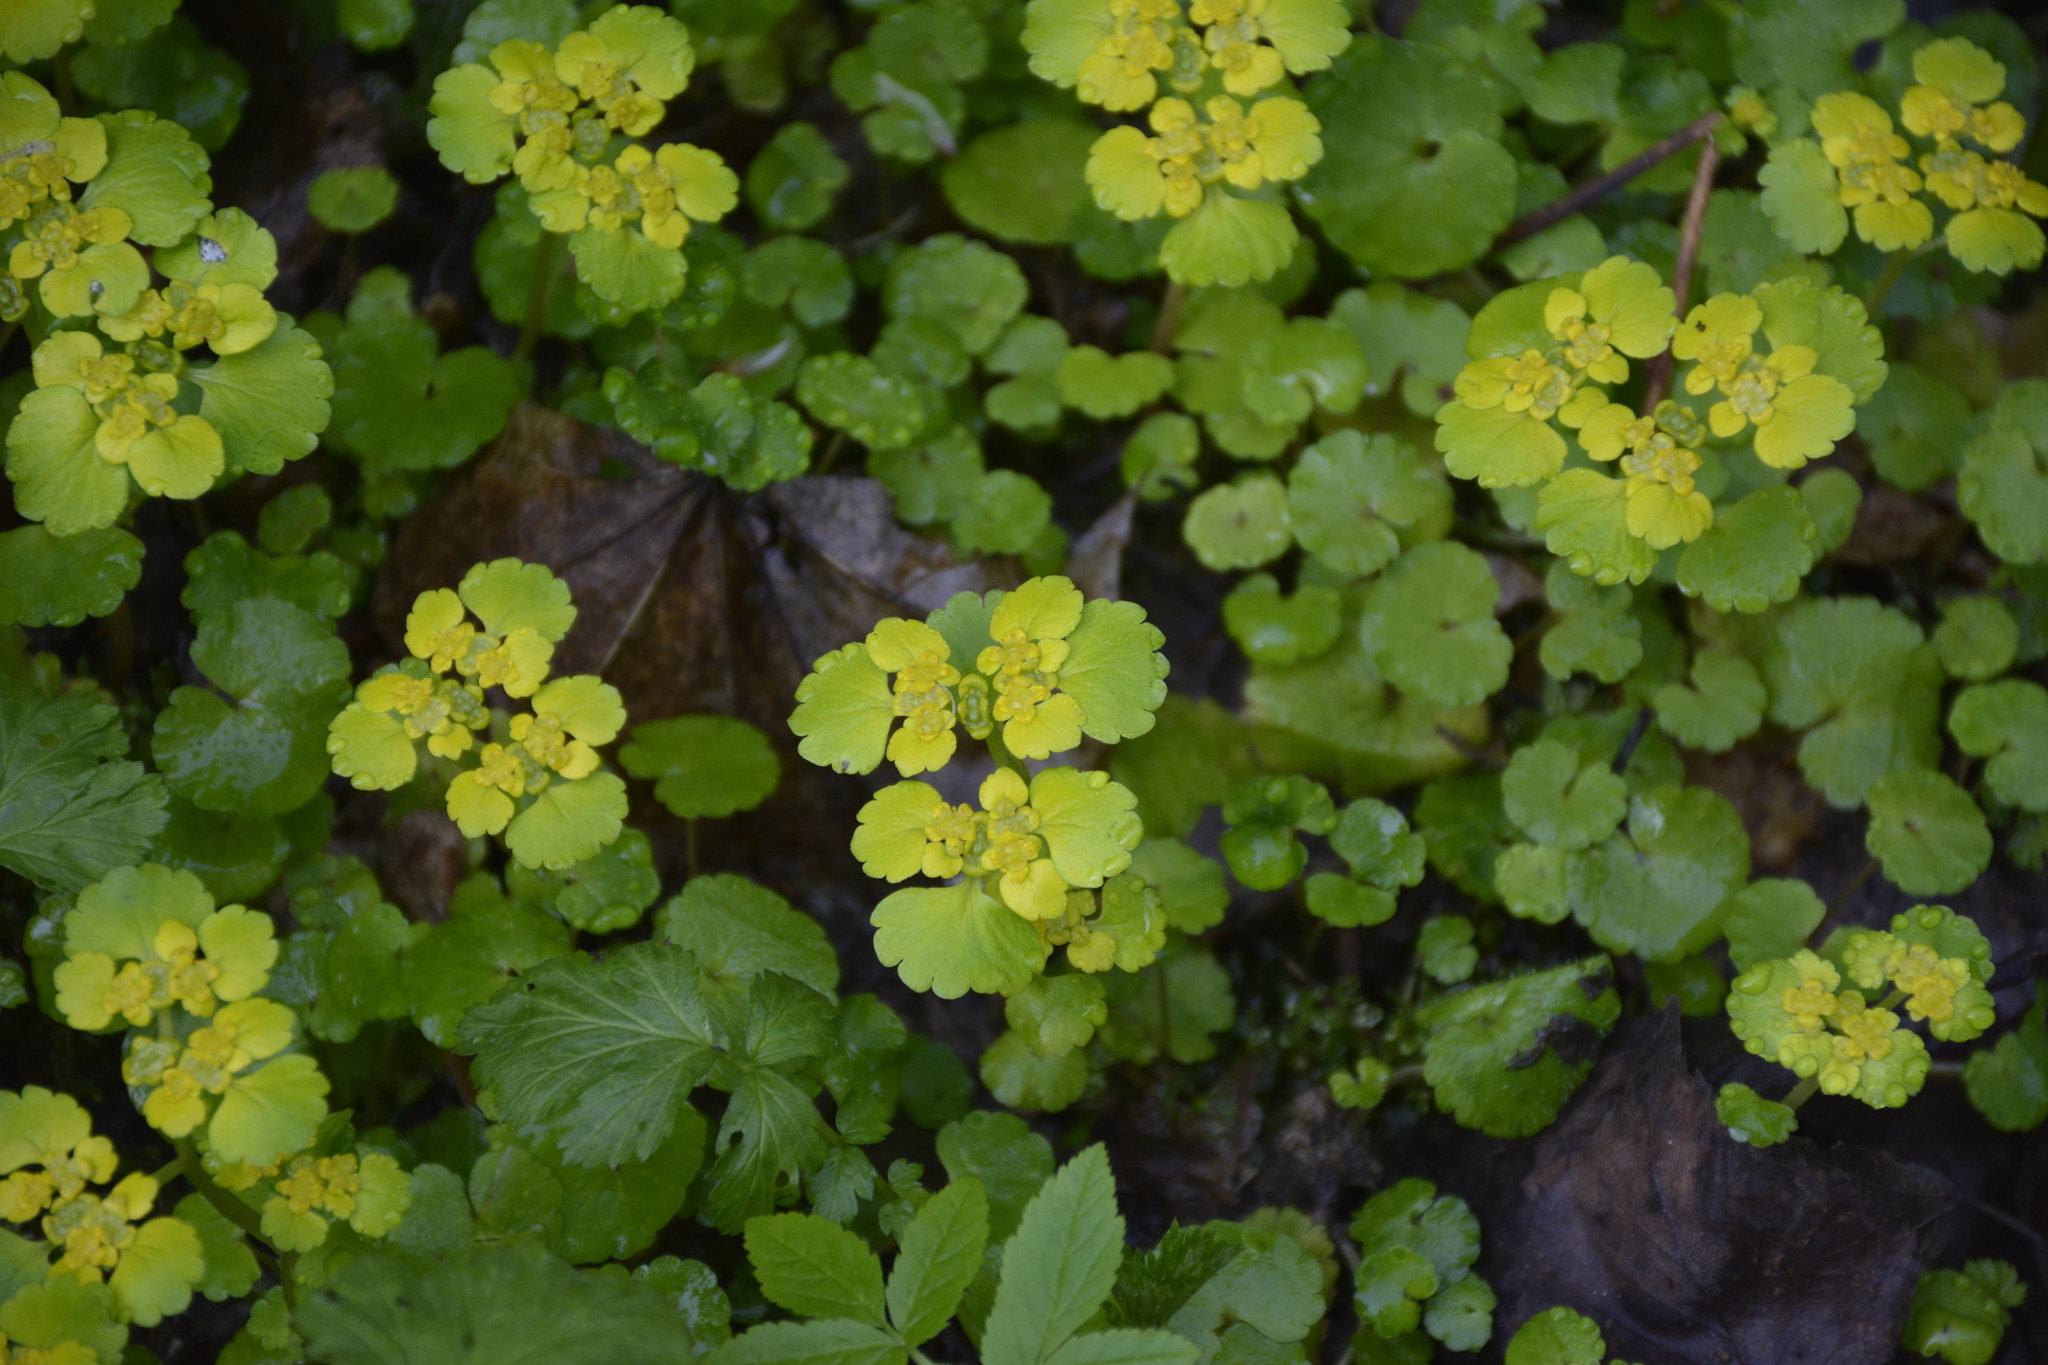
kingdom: Plantae
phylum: Tracheophyta
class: Magnoliopsida
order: Saxifragales
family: Saxifragaceae
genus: Chrysosplenium
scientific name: Chrysosplenium alternifolium
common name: Alternate-leaved golden-saxifrage
